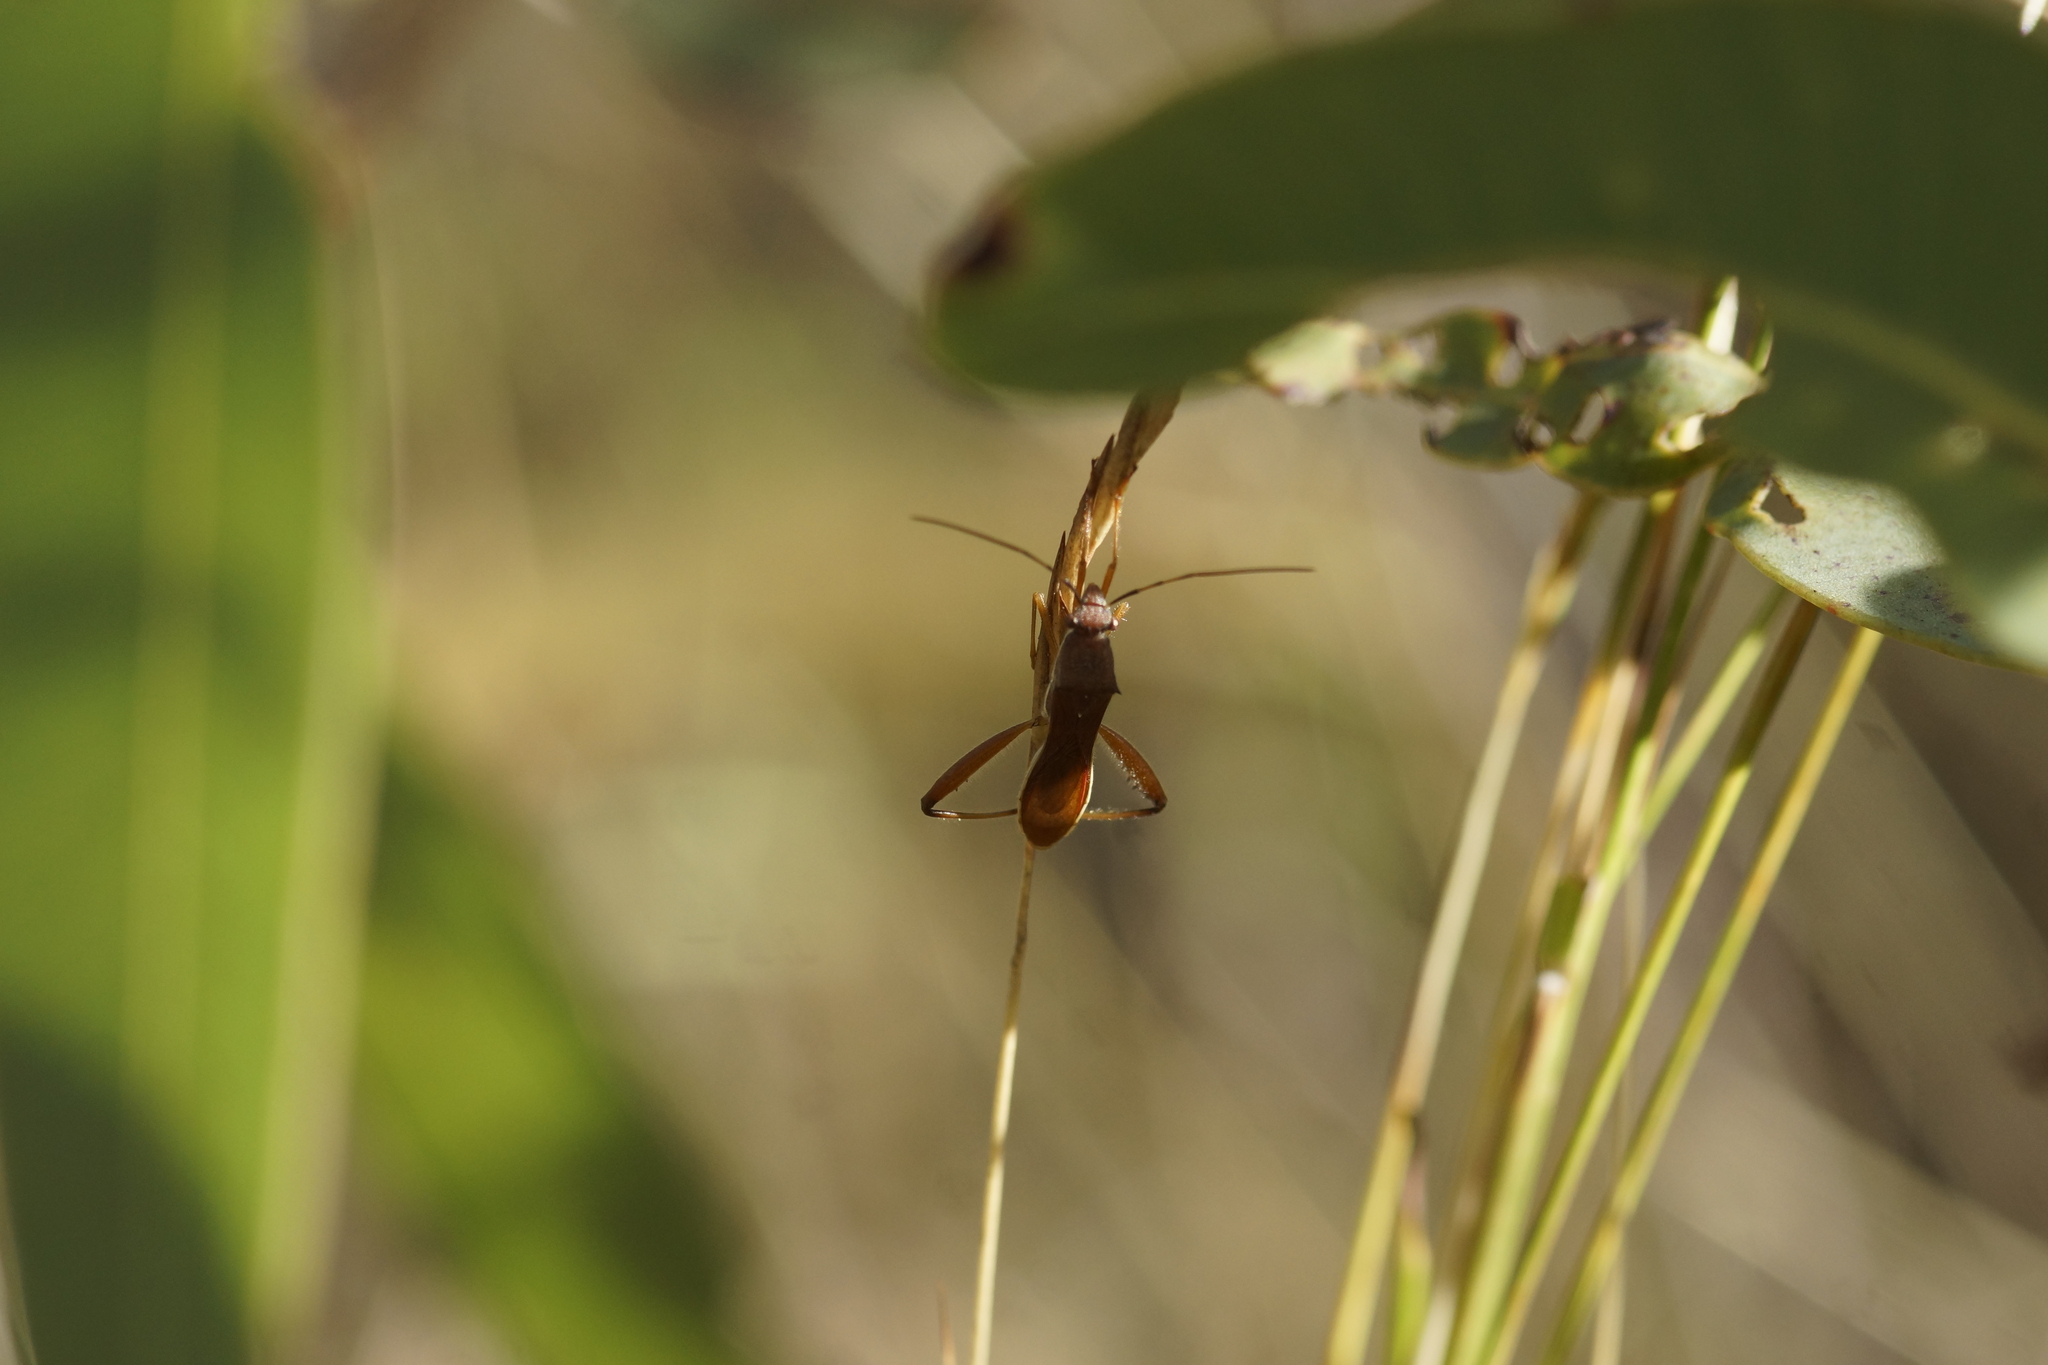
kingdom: Animalia
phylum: Arthropoda
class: Insecta
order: Hemiptera
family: Alydidae
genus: Riptortus
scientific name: Riptortus linearis
